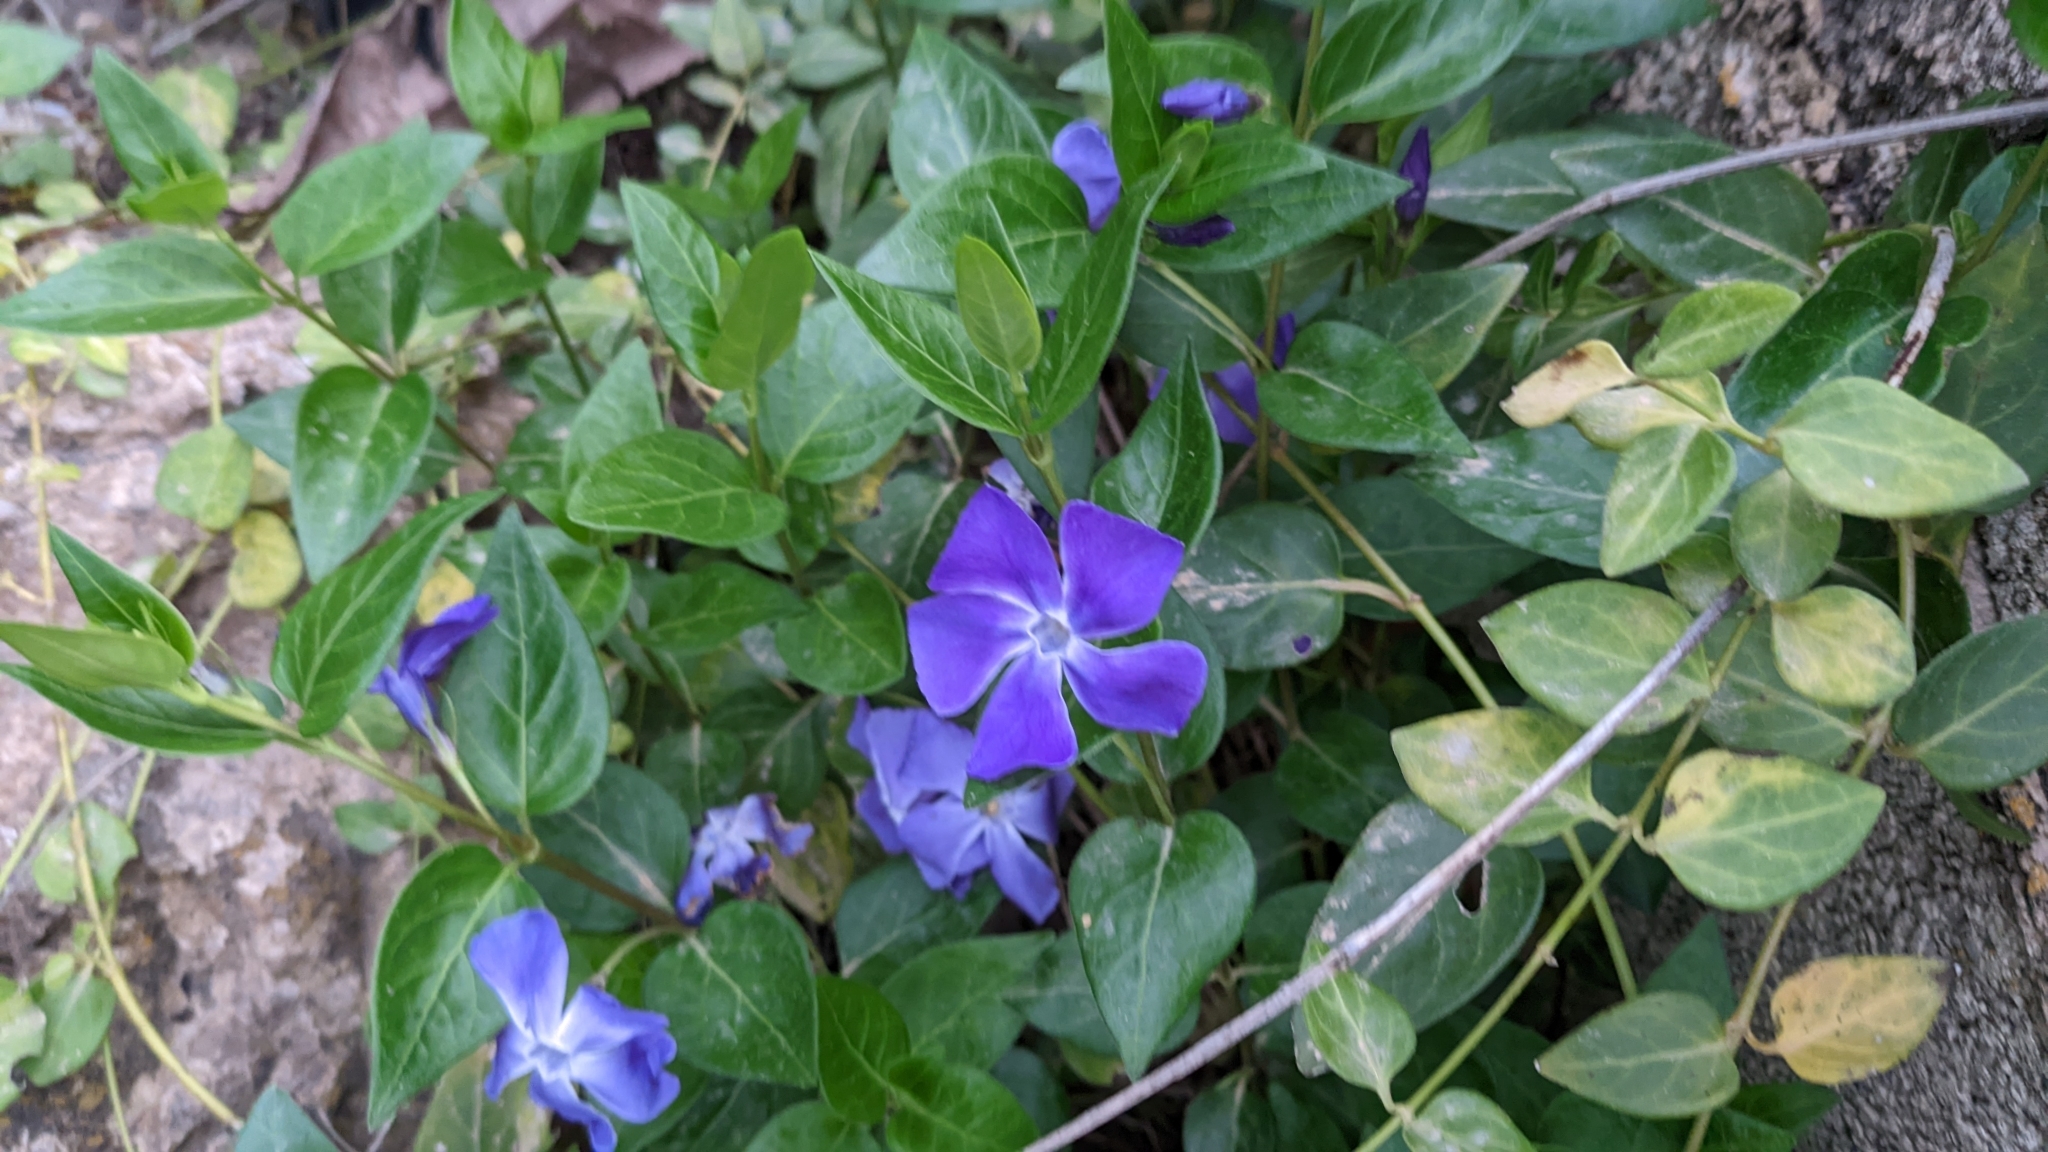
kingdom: Plantae
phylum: Tracheophyta
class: Magnoliopsida
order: Gentianales
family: Apocynaceae
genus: Vinca
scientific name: Vinca major
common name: Greater periwinkle
